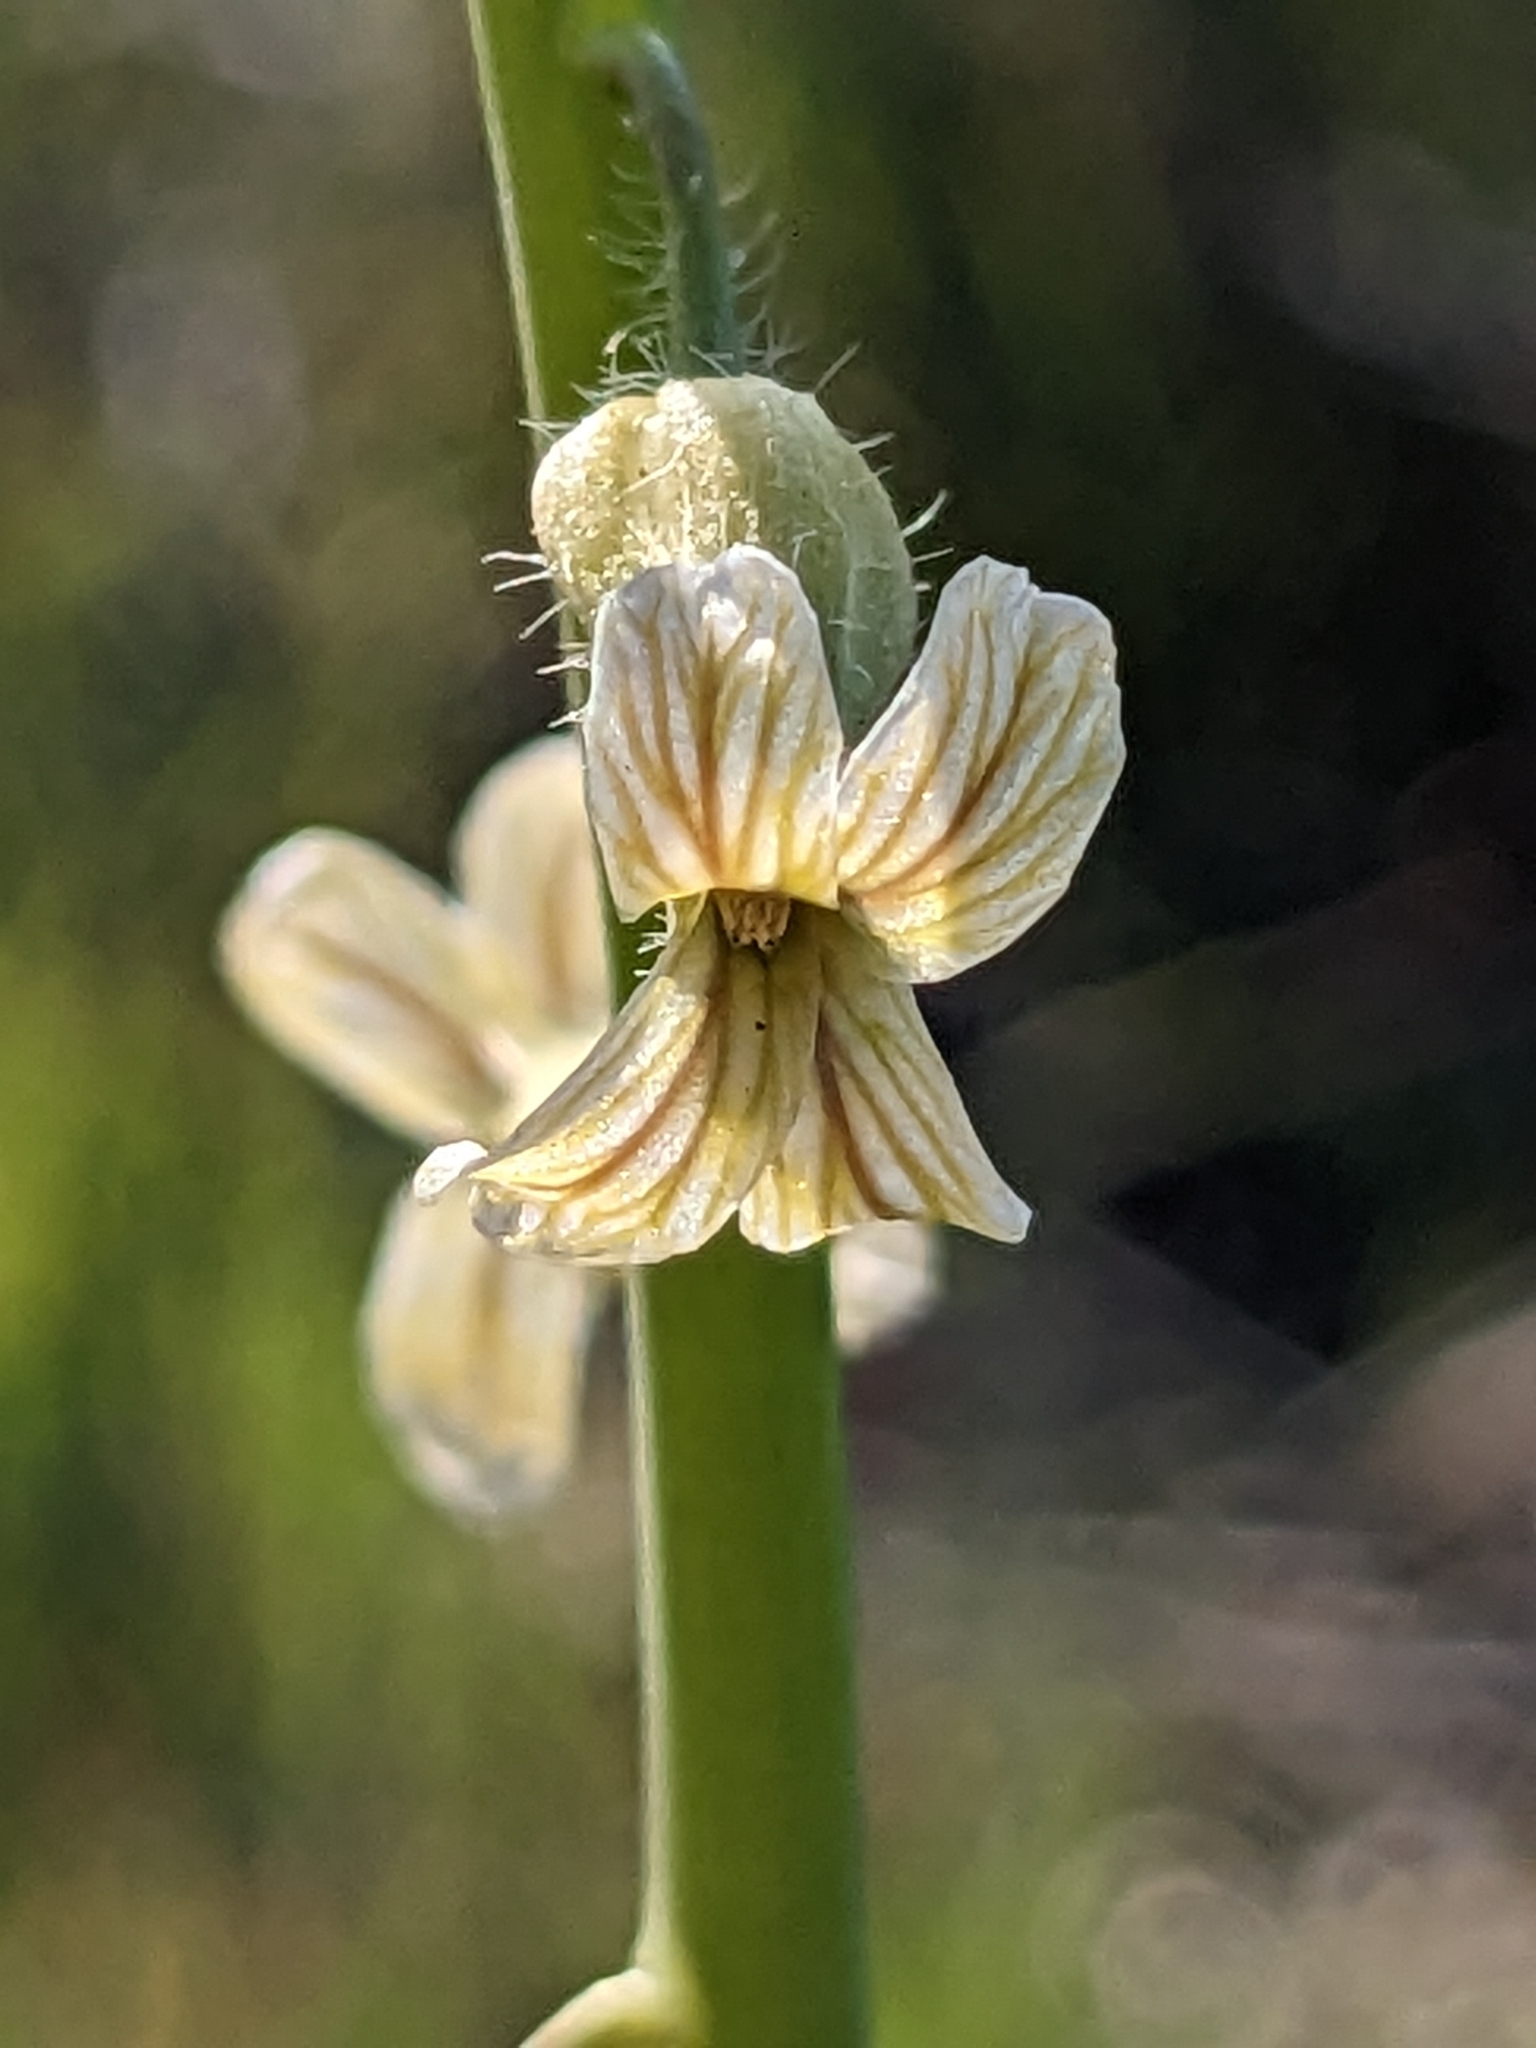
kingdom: Plantae
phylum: Tracheophyta
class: Magnoliopsida
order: Brassicales
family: Brassicaceae
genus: Streptanthus
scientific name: Streptanthus heterophyllus
